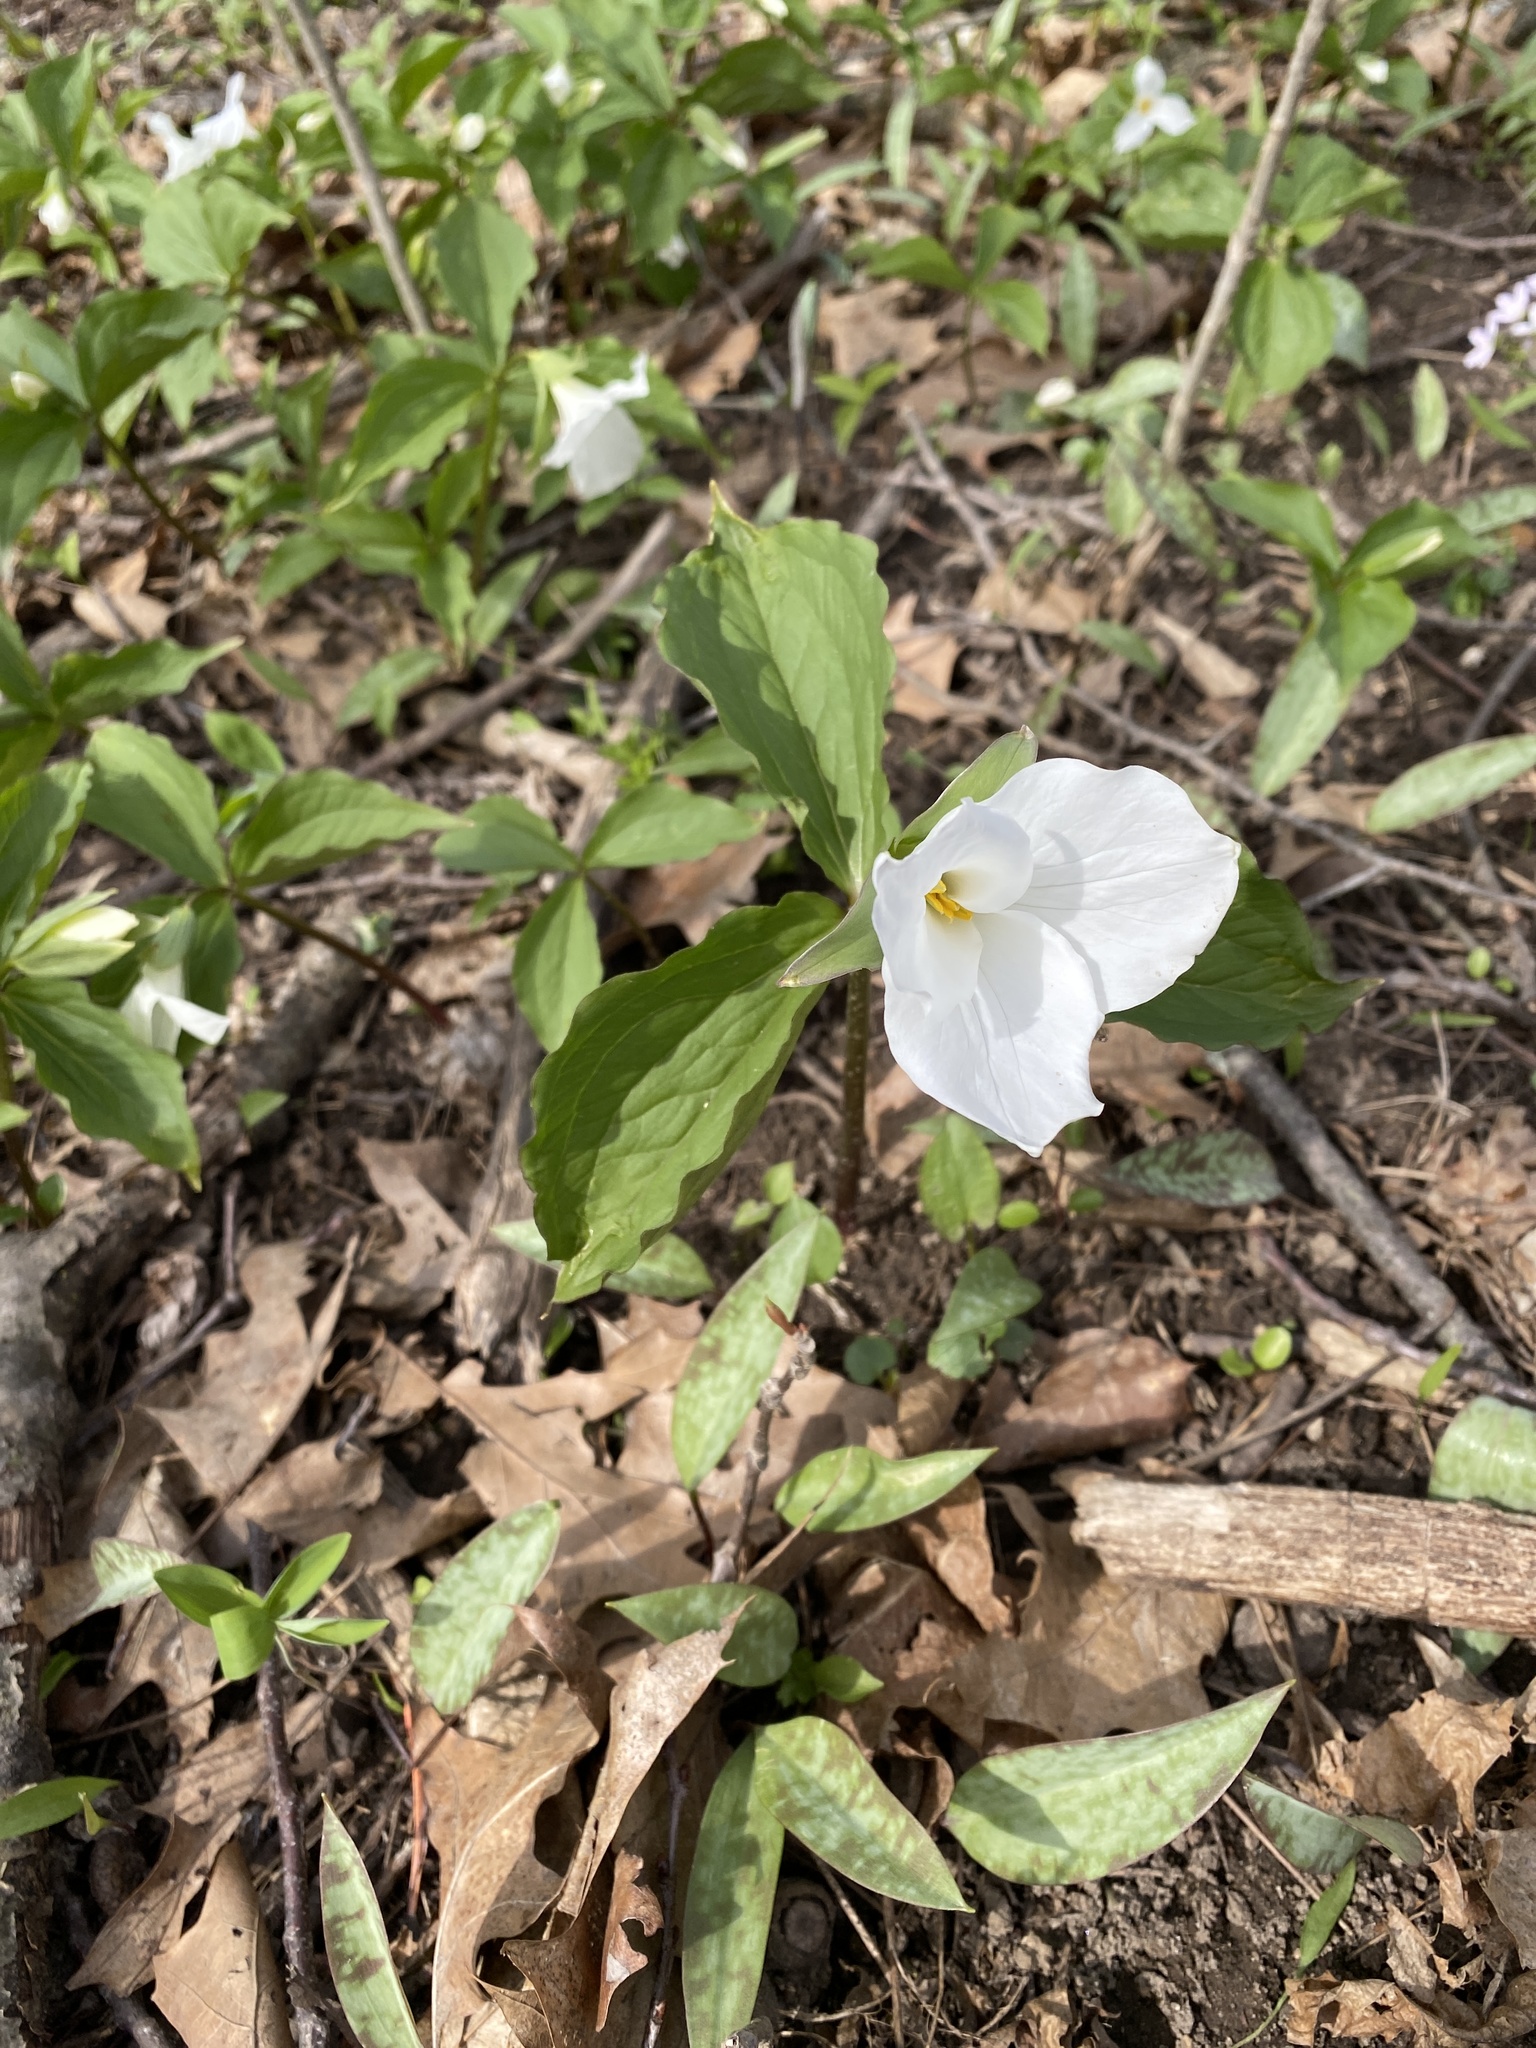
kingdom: Plantae
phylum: Tracheophyta
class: Liliopsida
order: Liliales
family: Melanthiaceae
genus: Trillium
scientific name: Trillium grandiflorum
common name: Great white trillium
